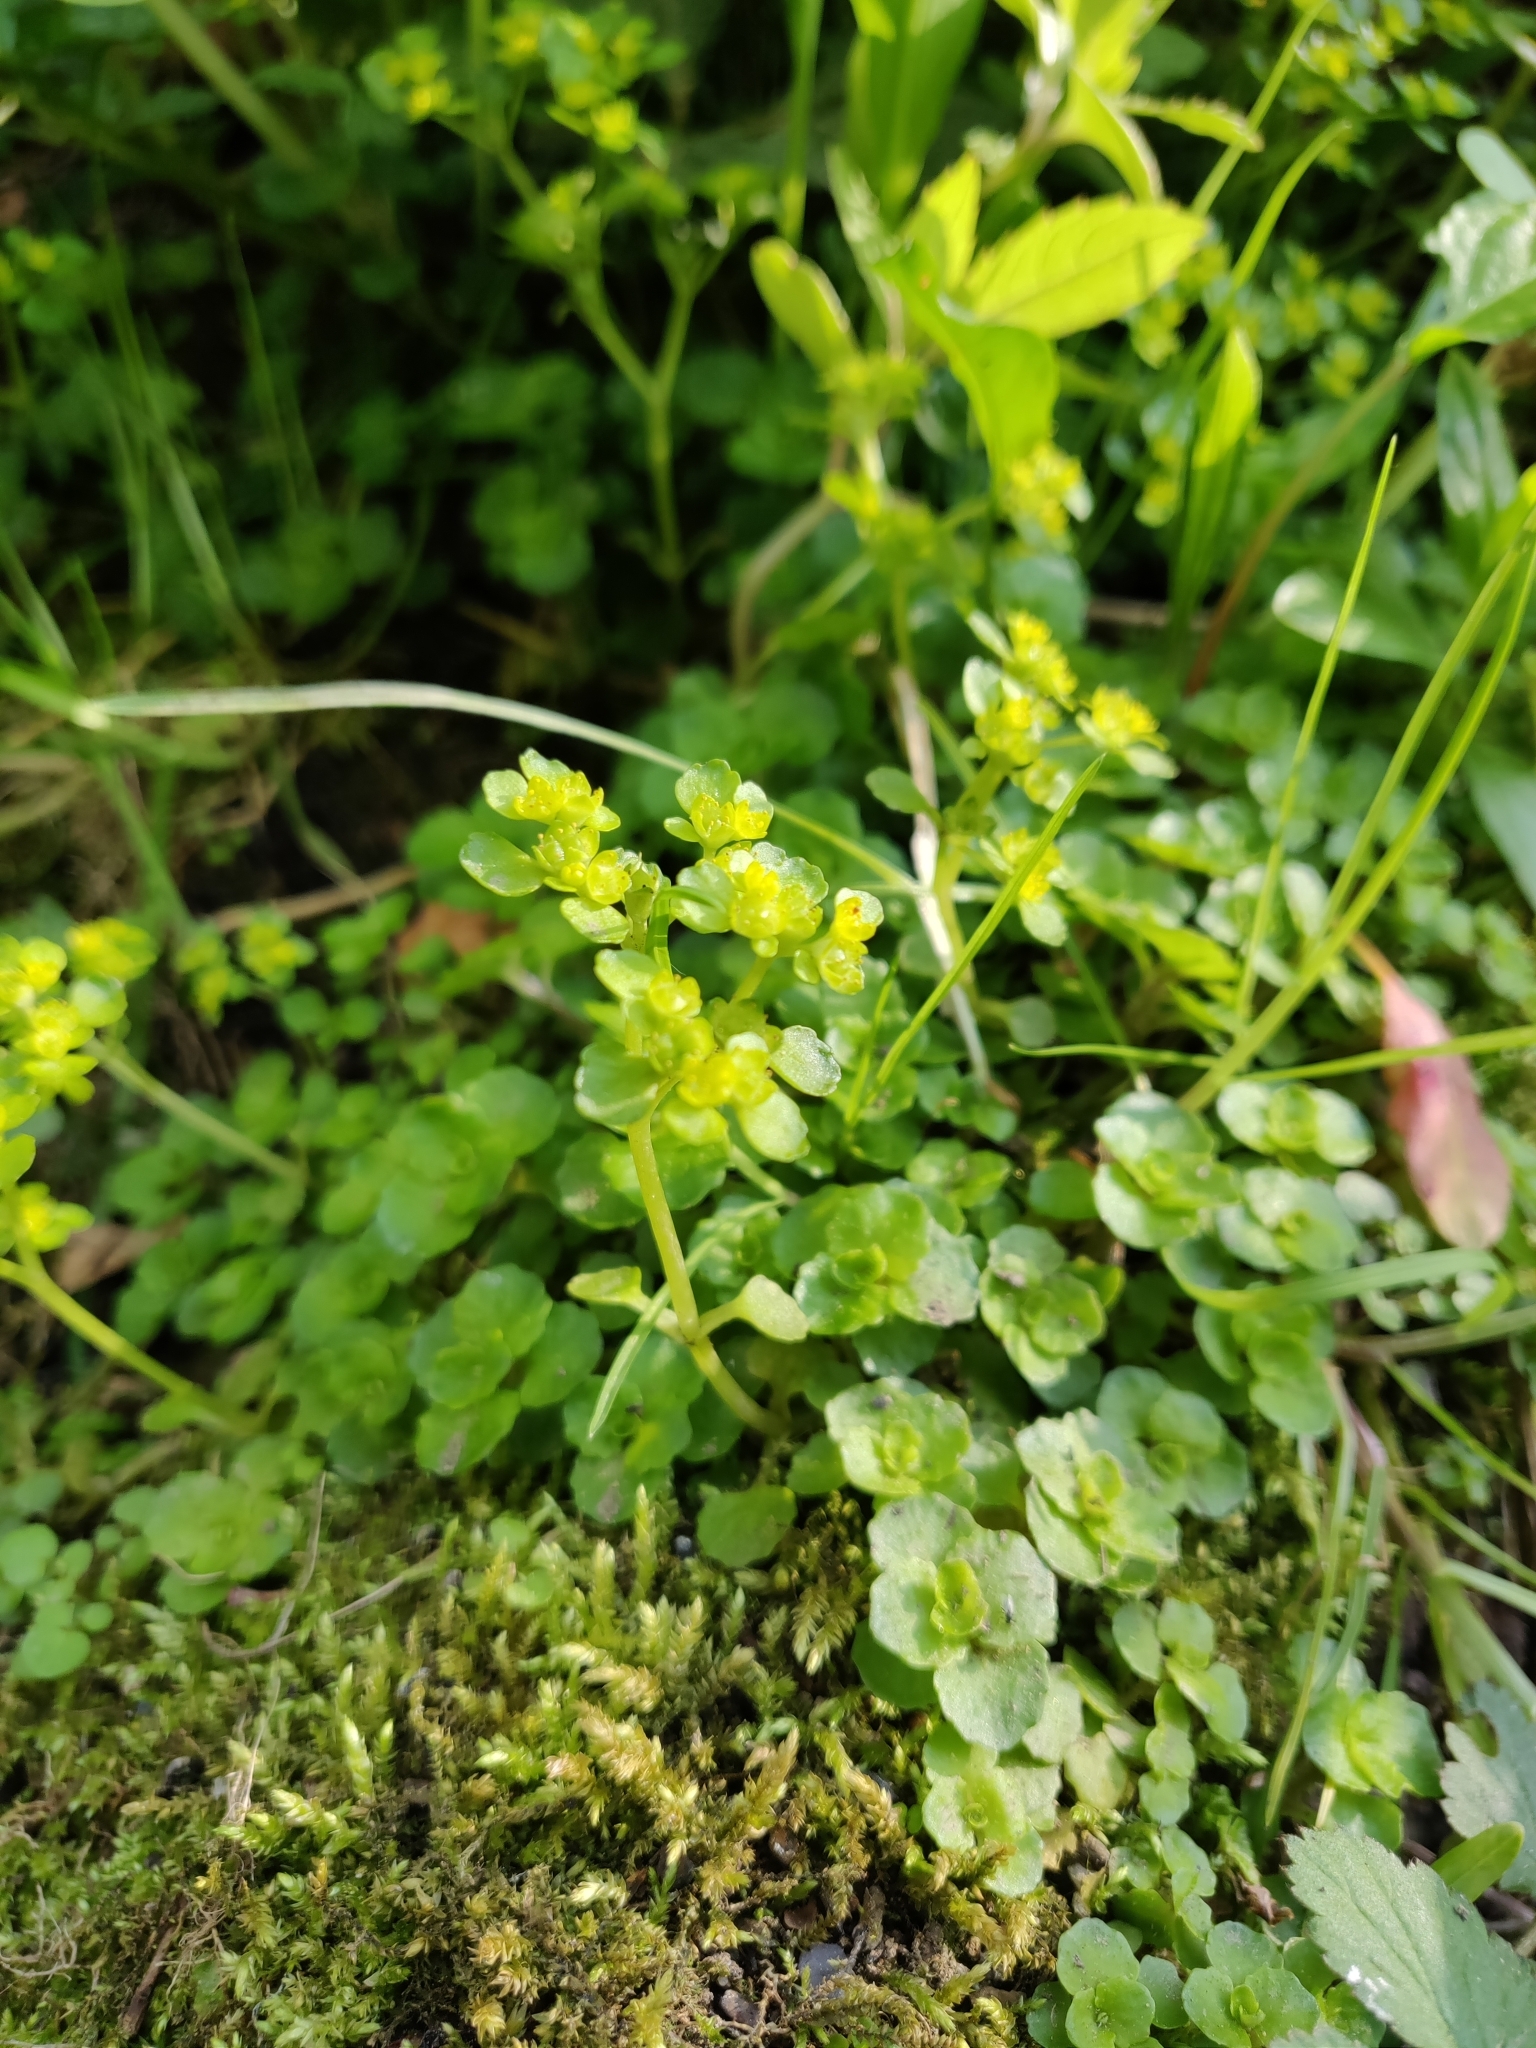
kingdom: Plantae
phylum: Tracheophyta
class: Magnoliopsida
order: Saxifragales
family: Saxifragaceae
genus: Chrysosplenium
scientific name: Chrysosplenium oppositifolium
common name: Opposite-leaved golden-saxifrage
